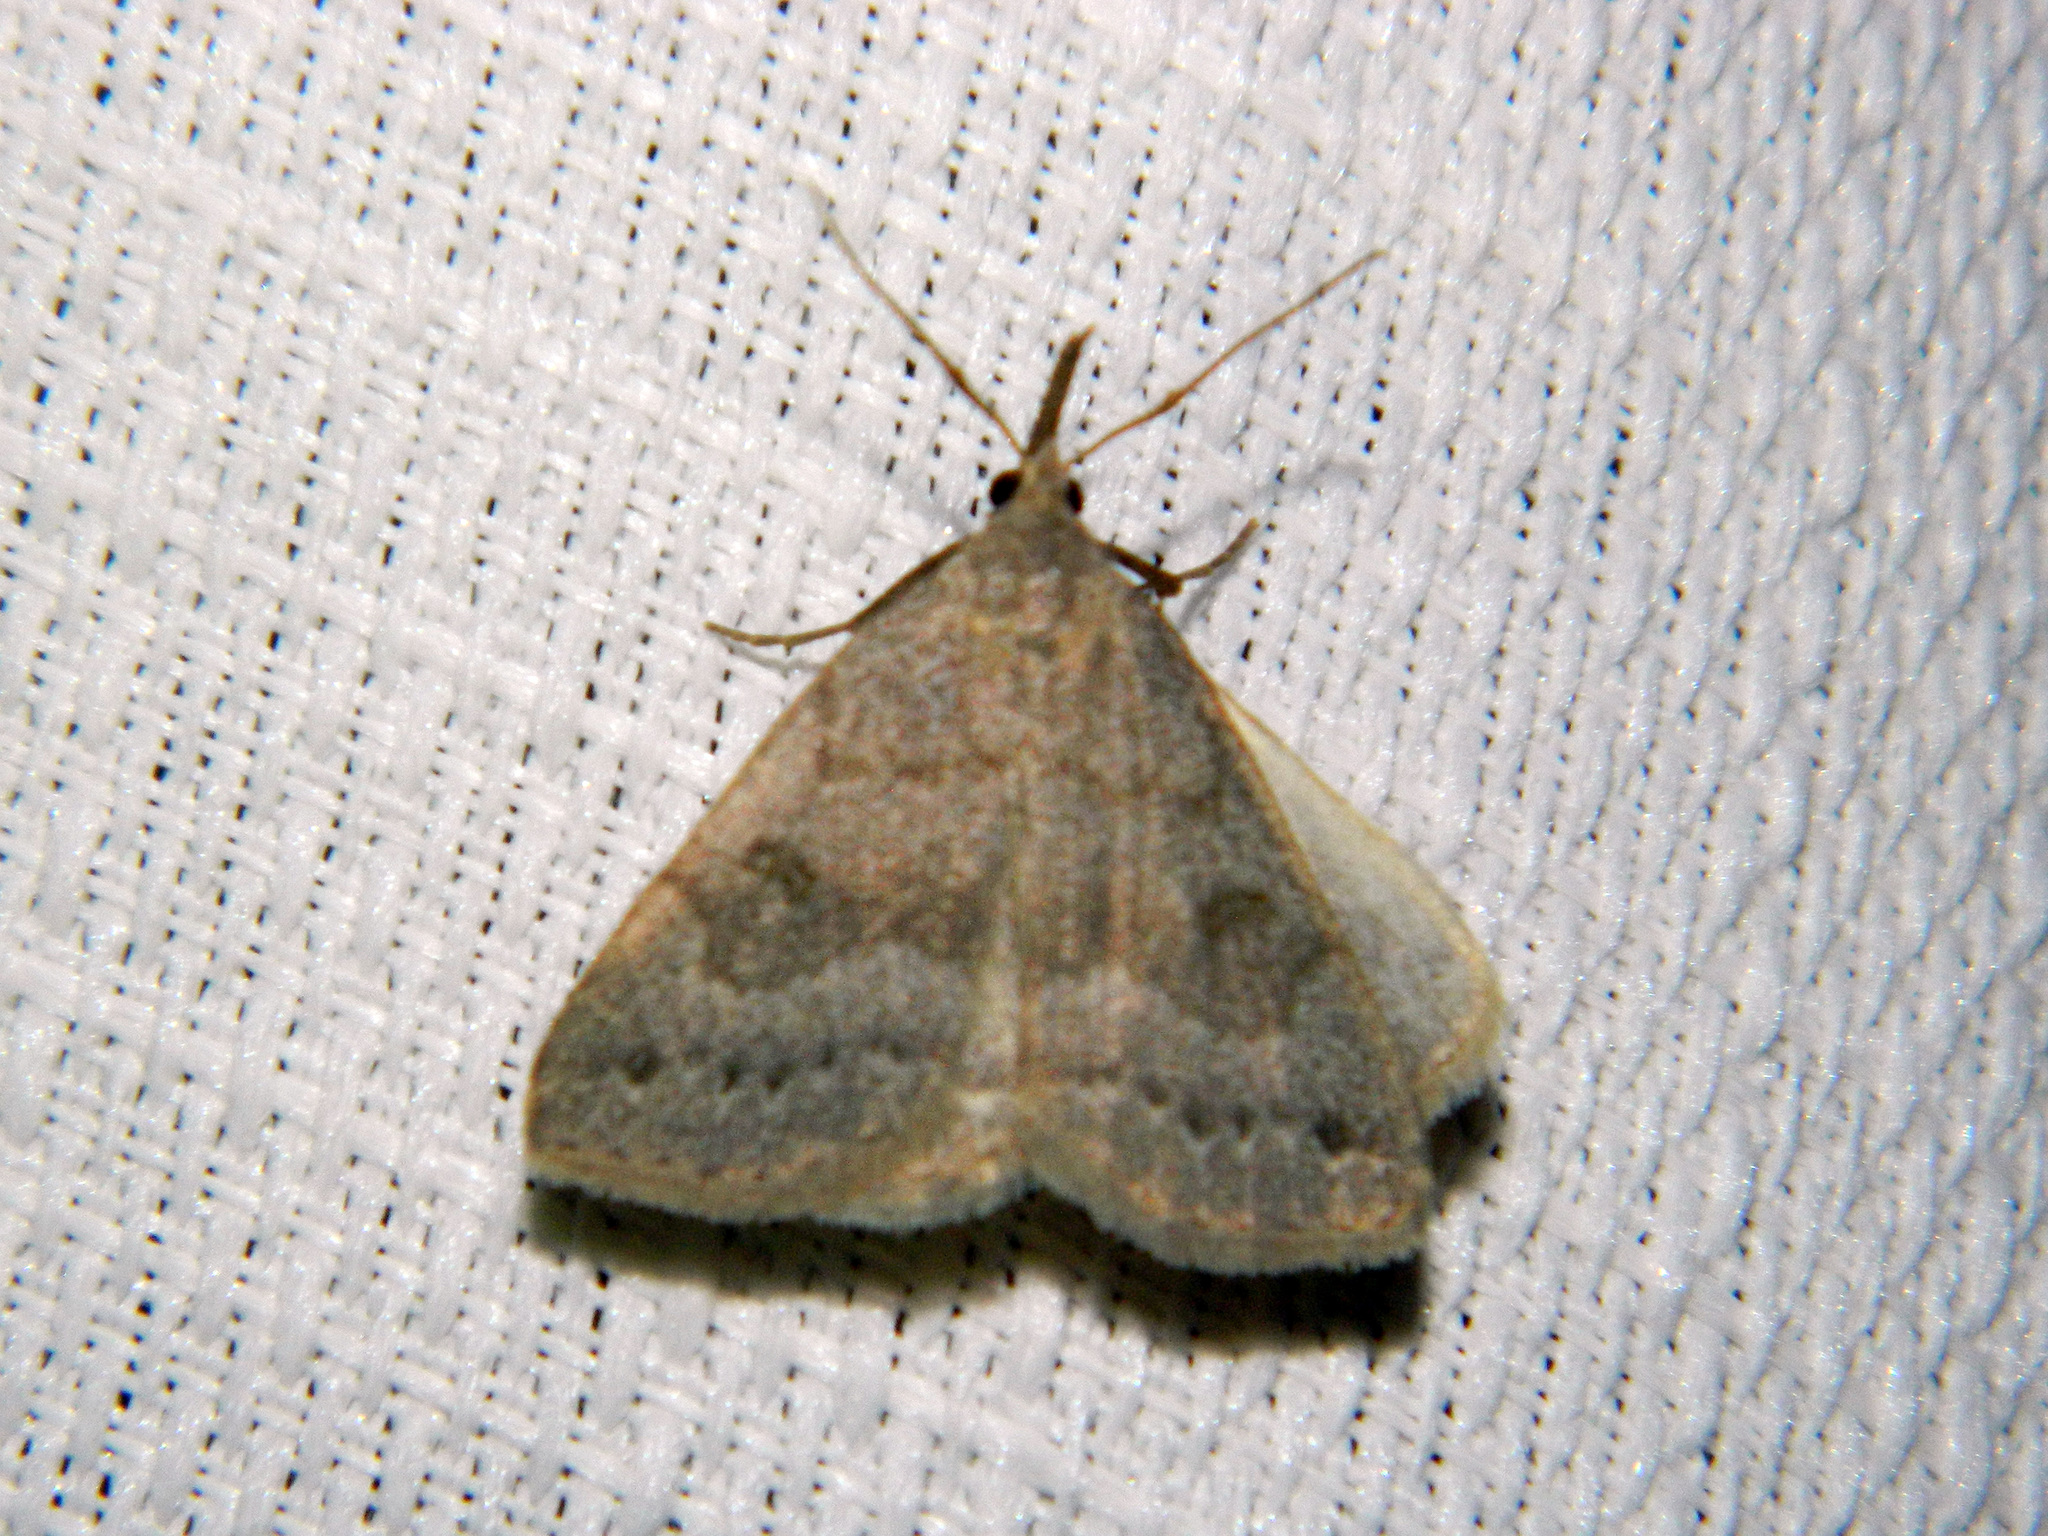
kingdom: Animalia
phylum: Arthropoda
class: Insecta
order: Lepidoptera
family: Erebidae
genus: Macrochilo
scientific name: Macrochilo morbidalis
